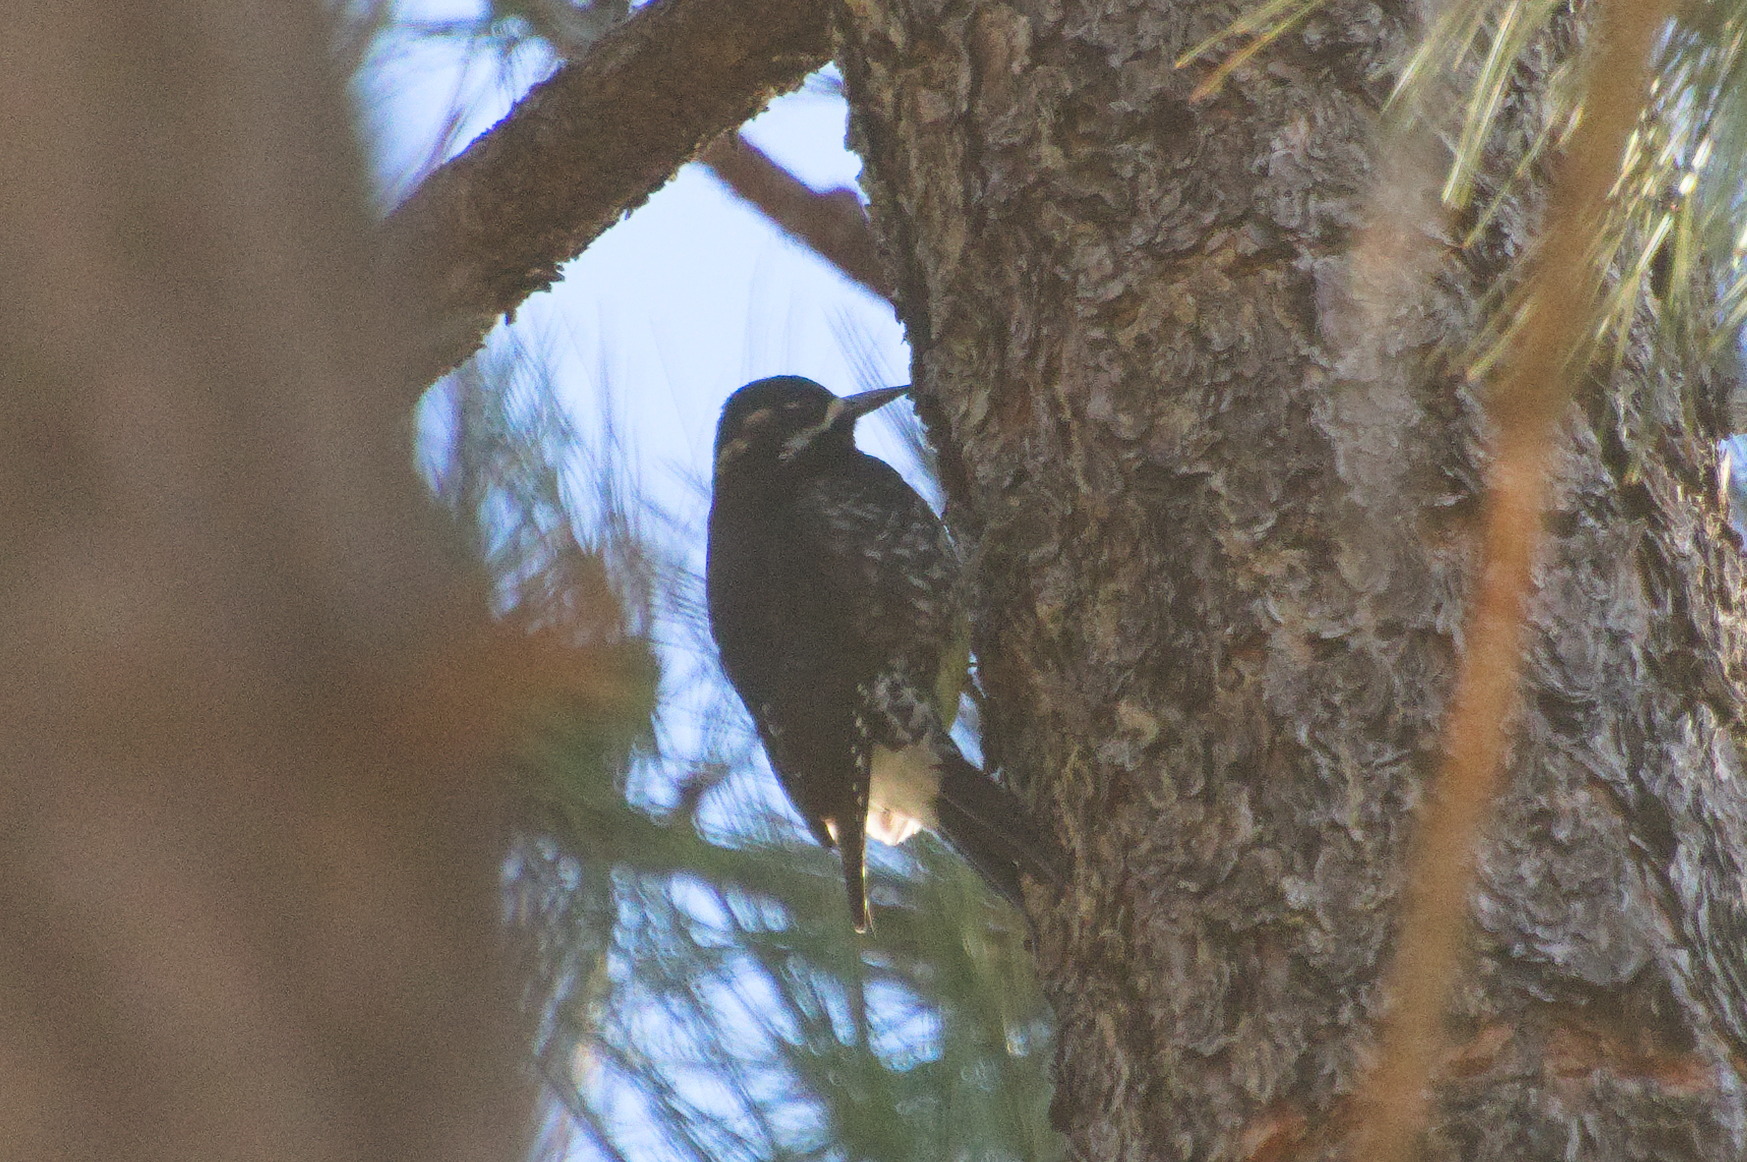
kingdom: Animalia
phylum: Chordata
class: Aves
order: Piciformes
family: Picidae
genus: Sphyrapicus
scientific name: Sphyrapicus thyroideus
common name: Williamson's sapsucker
